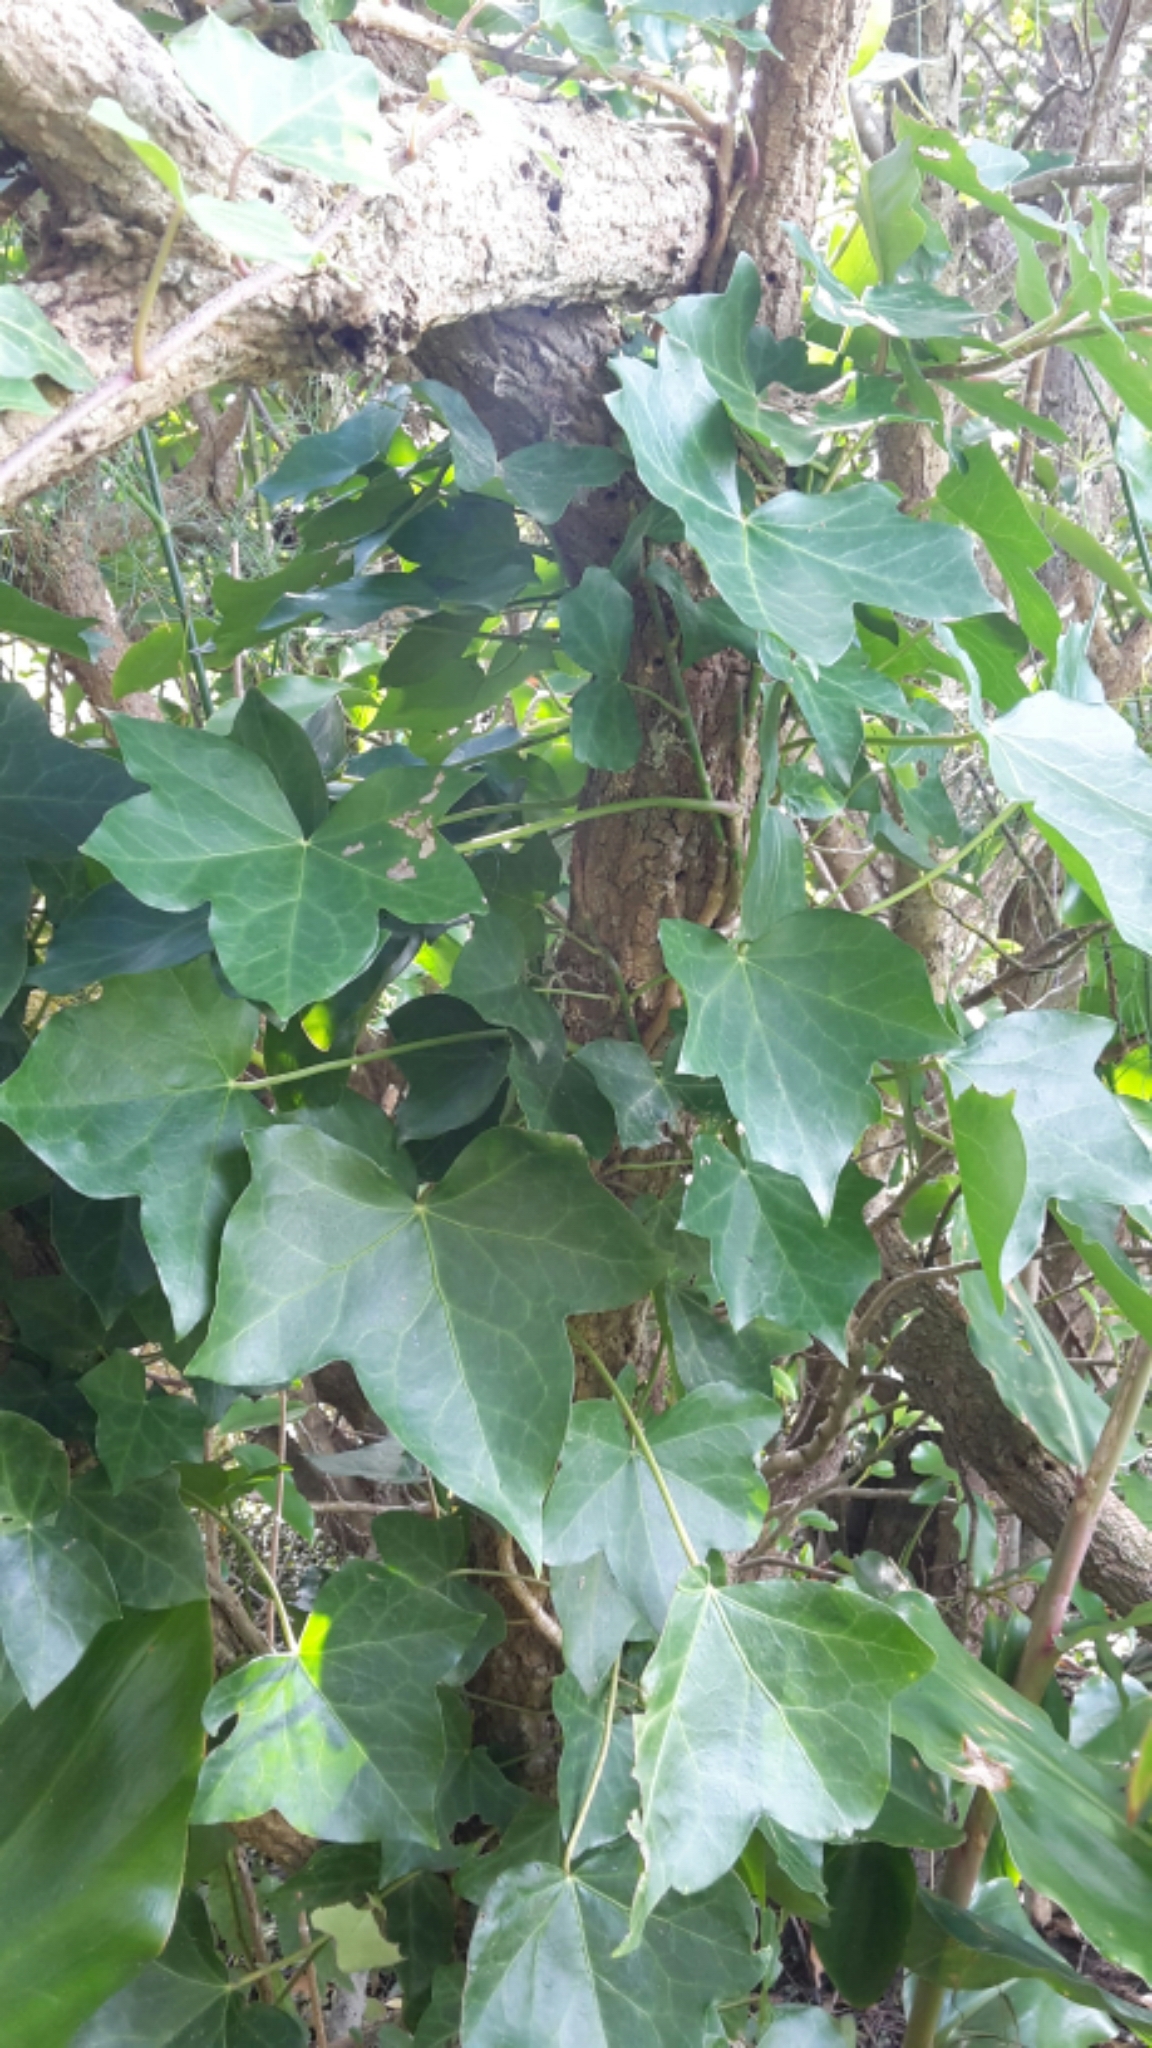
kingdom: Plantae
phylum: Tracheophyta
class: Magnoliopsida
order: Apiales
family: Araliaceae
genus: Hedera
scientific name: Hedera helix
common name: Ivy
